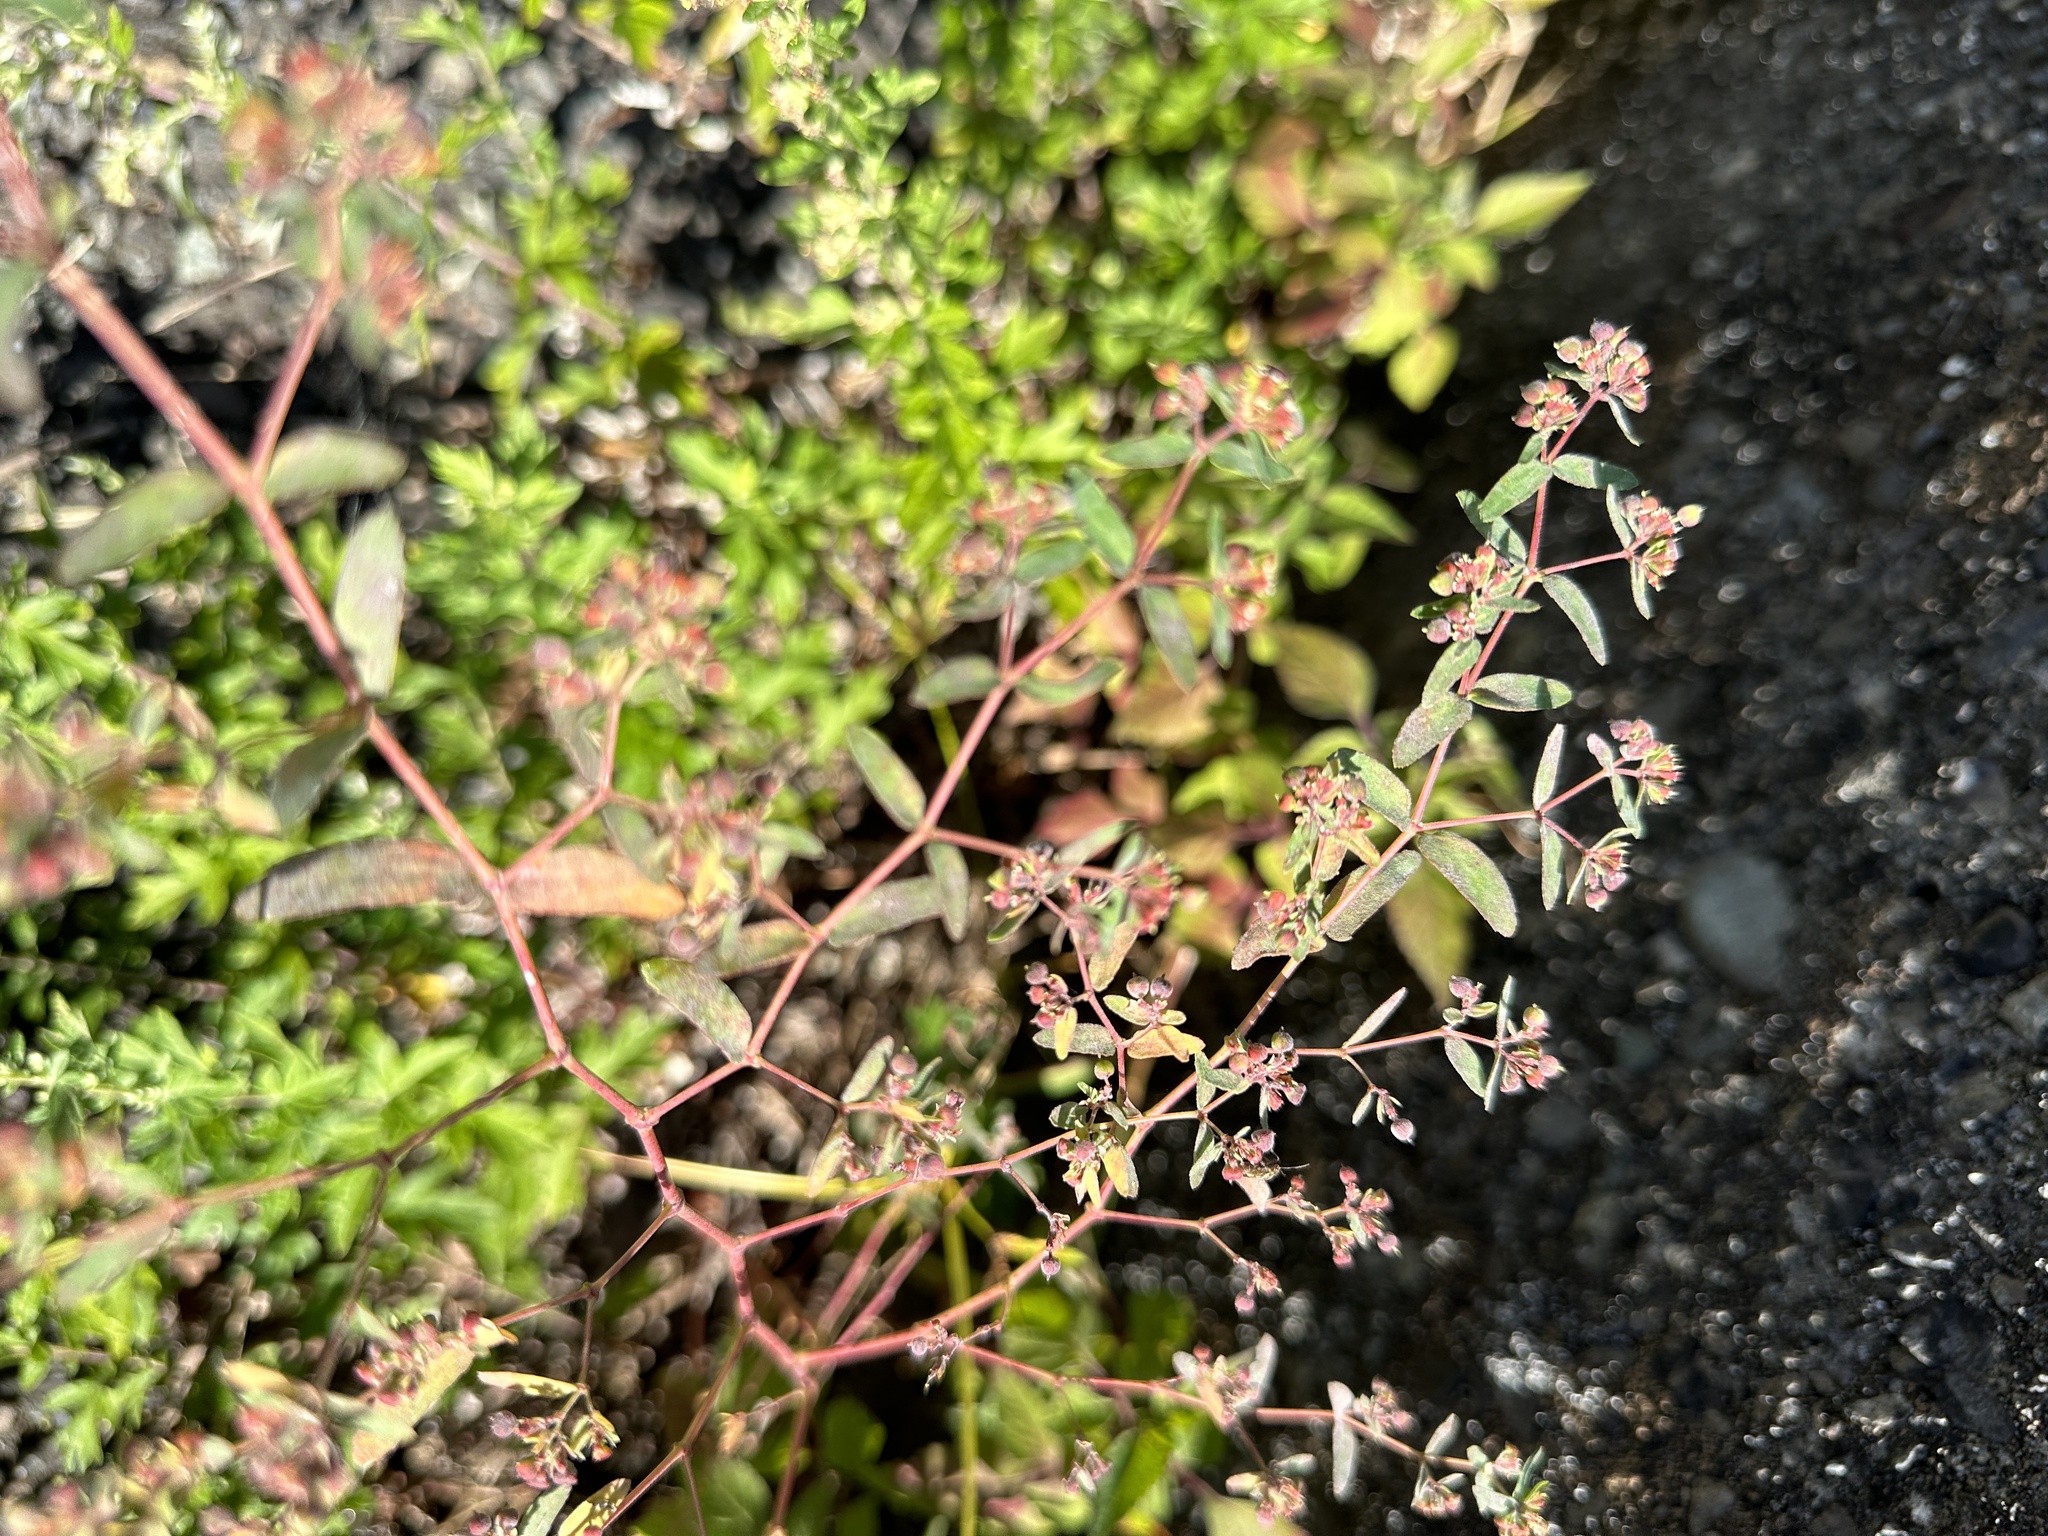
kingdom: Plantae
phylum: Tracheophyta
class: Magnoliopsida
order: Malpighiales
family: Euphorbiaceae
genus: Euphorbia
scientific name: Euphorbia nutans
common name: Eyebane
